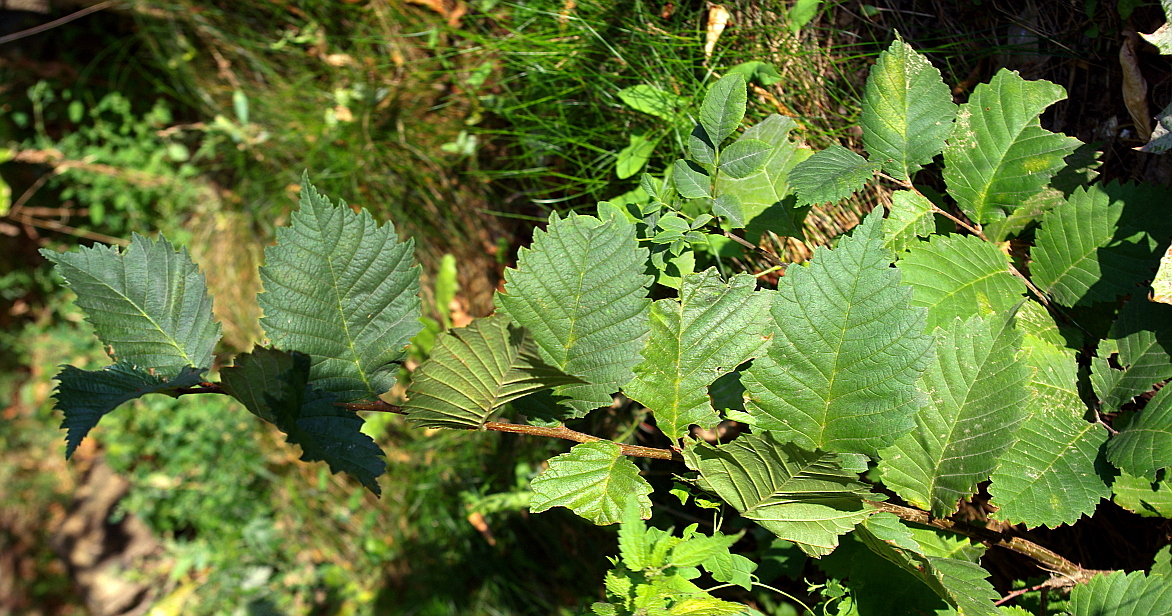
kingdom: Plantae
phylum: Tracheophyta
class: Magnoliopsida
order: Rosales
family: Ulmaceae
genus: Ulmus
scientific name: Ulmus laevis
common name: European white-elm
